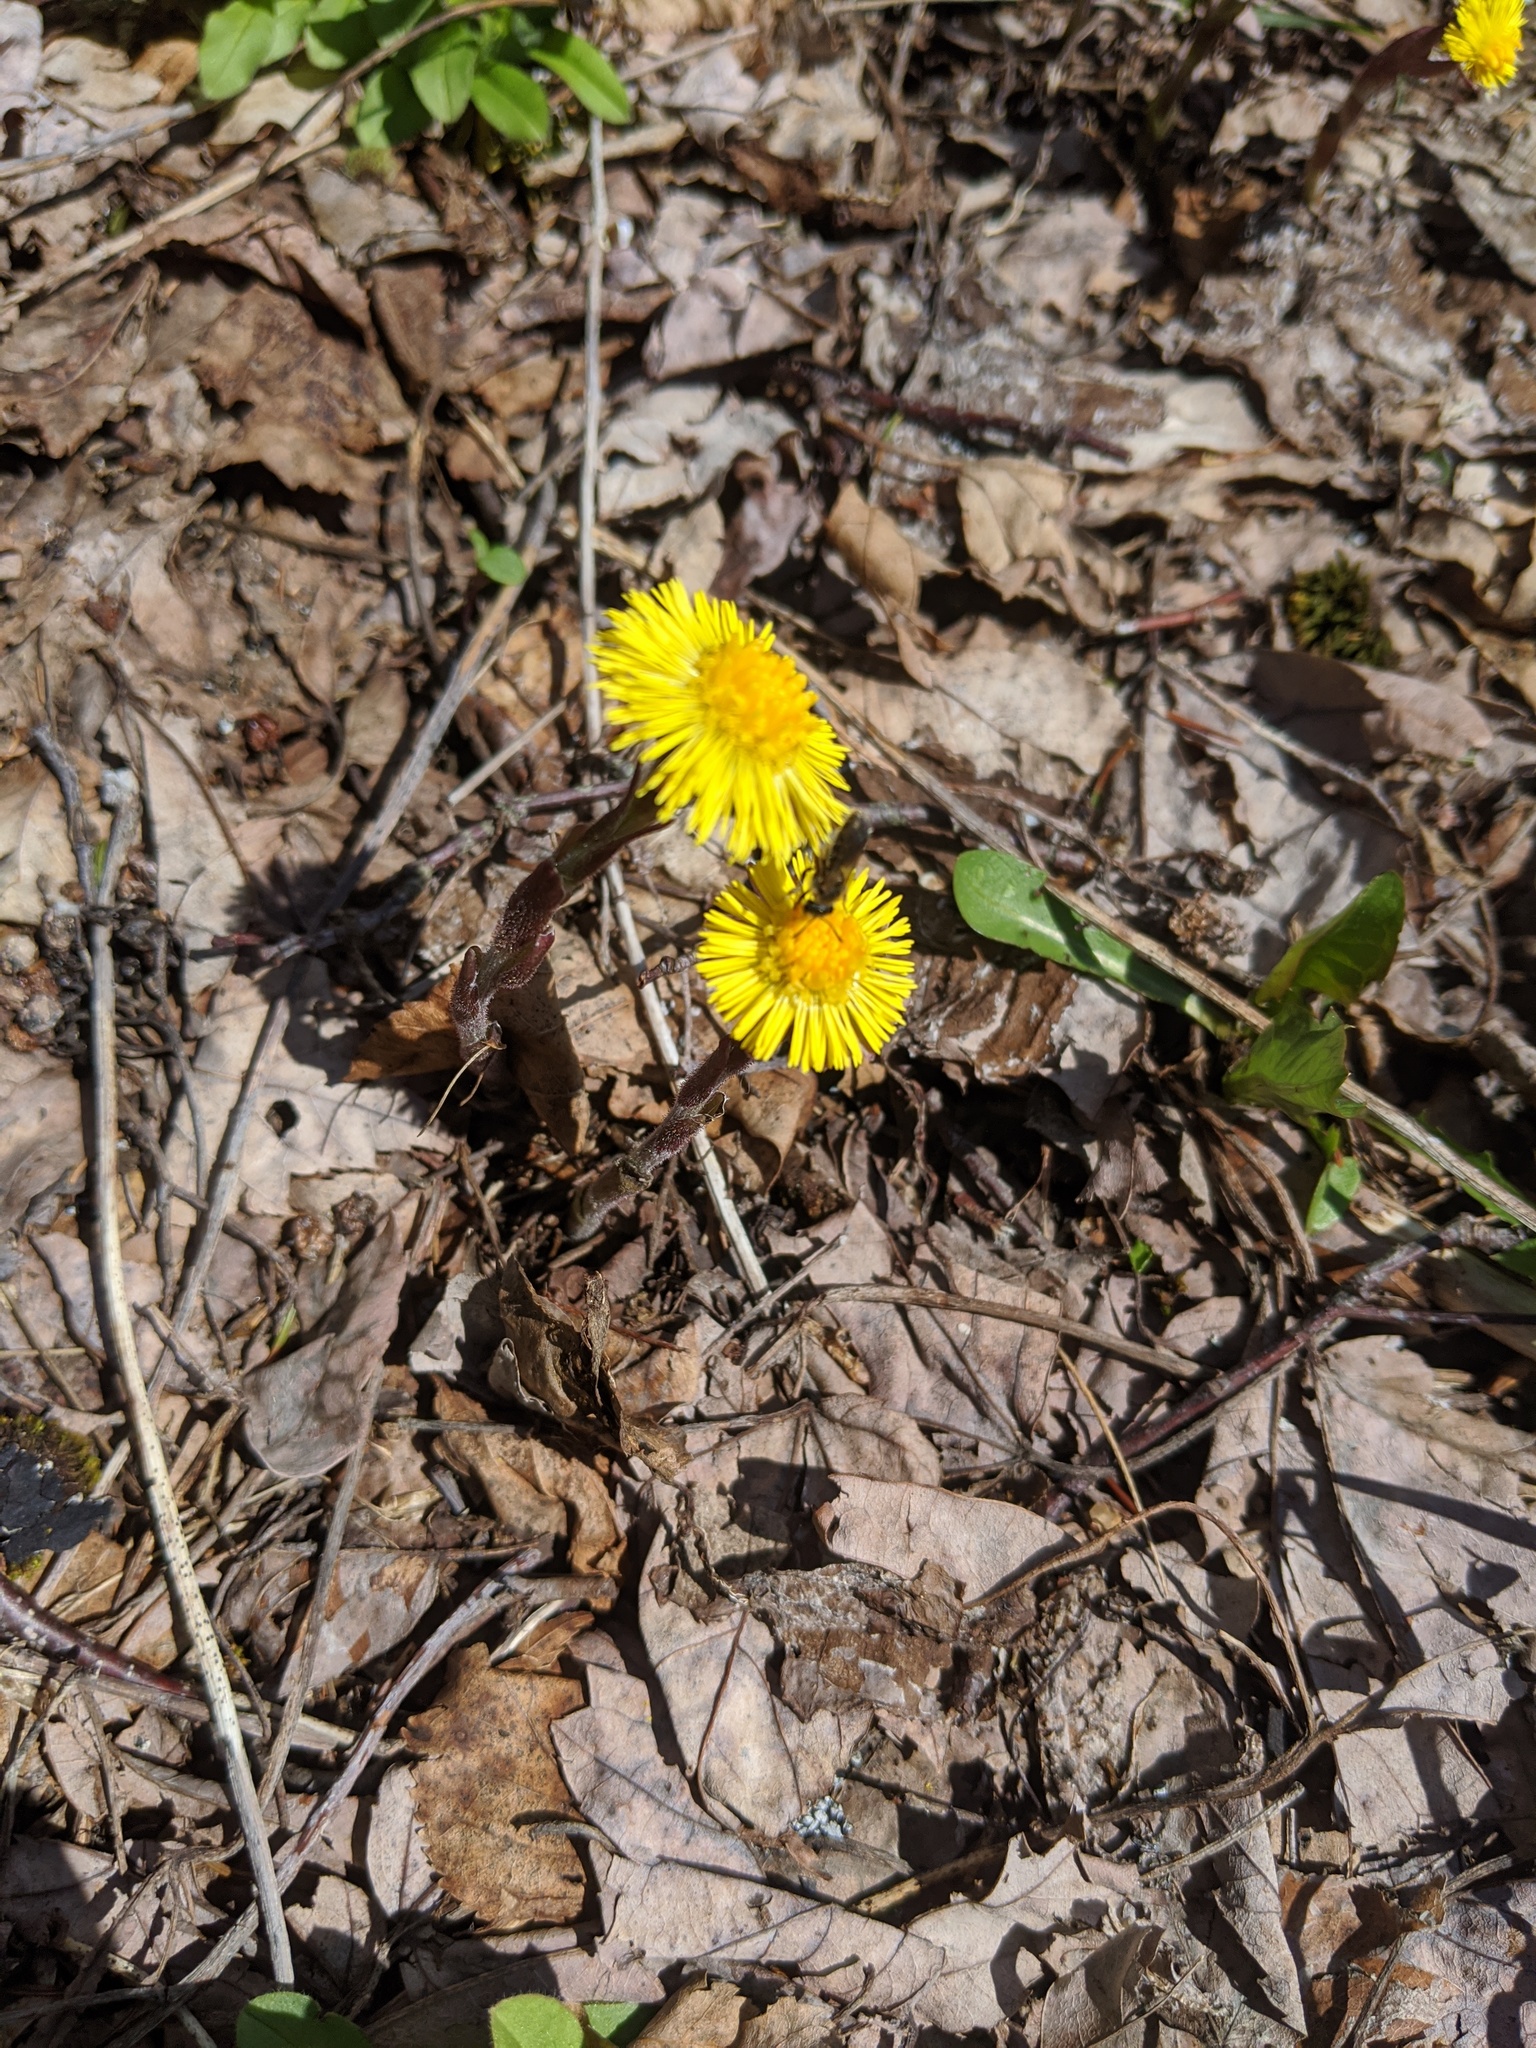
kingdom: Plantae
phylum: Tracheophyta
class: Magnoliopsida
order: Asterales
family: Asteraceae
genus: Tussilago
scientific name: Tussilago farfara
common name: Coltsfoot
